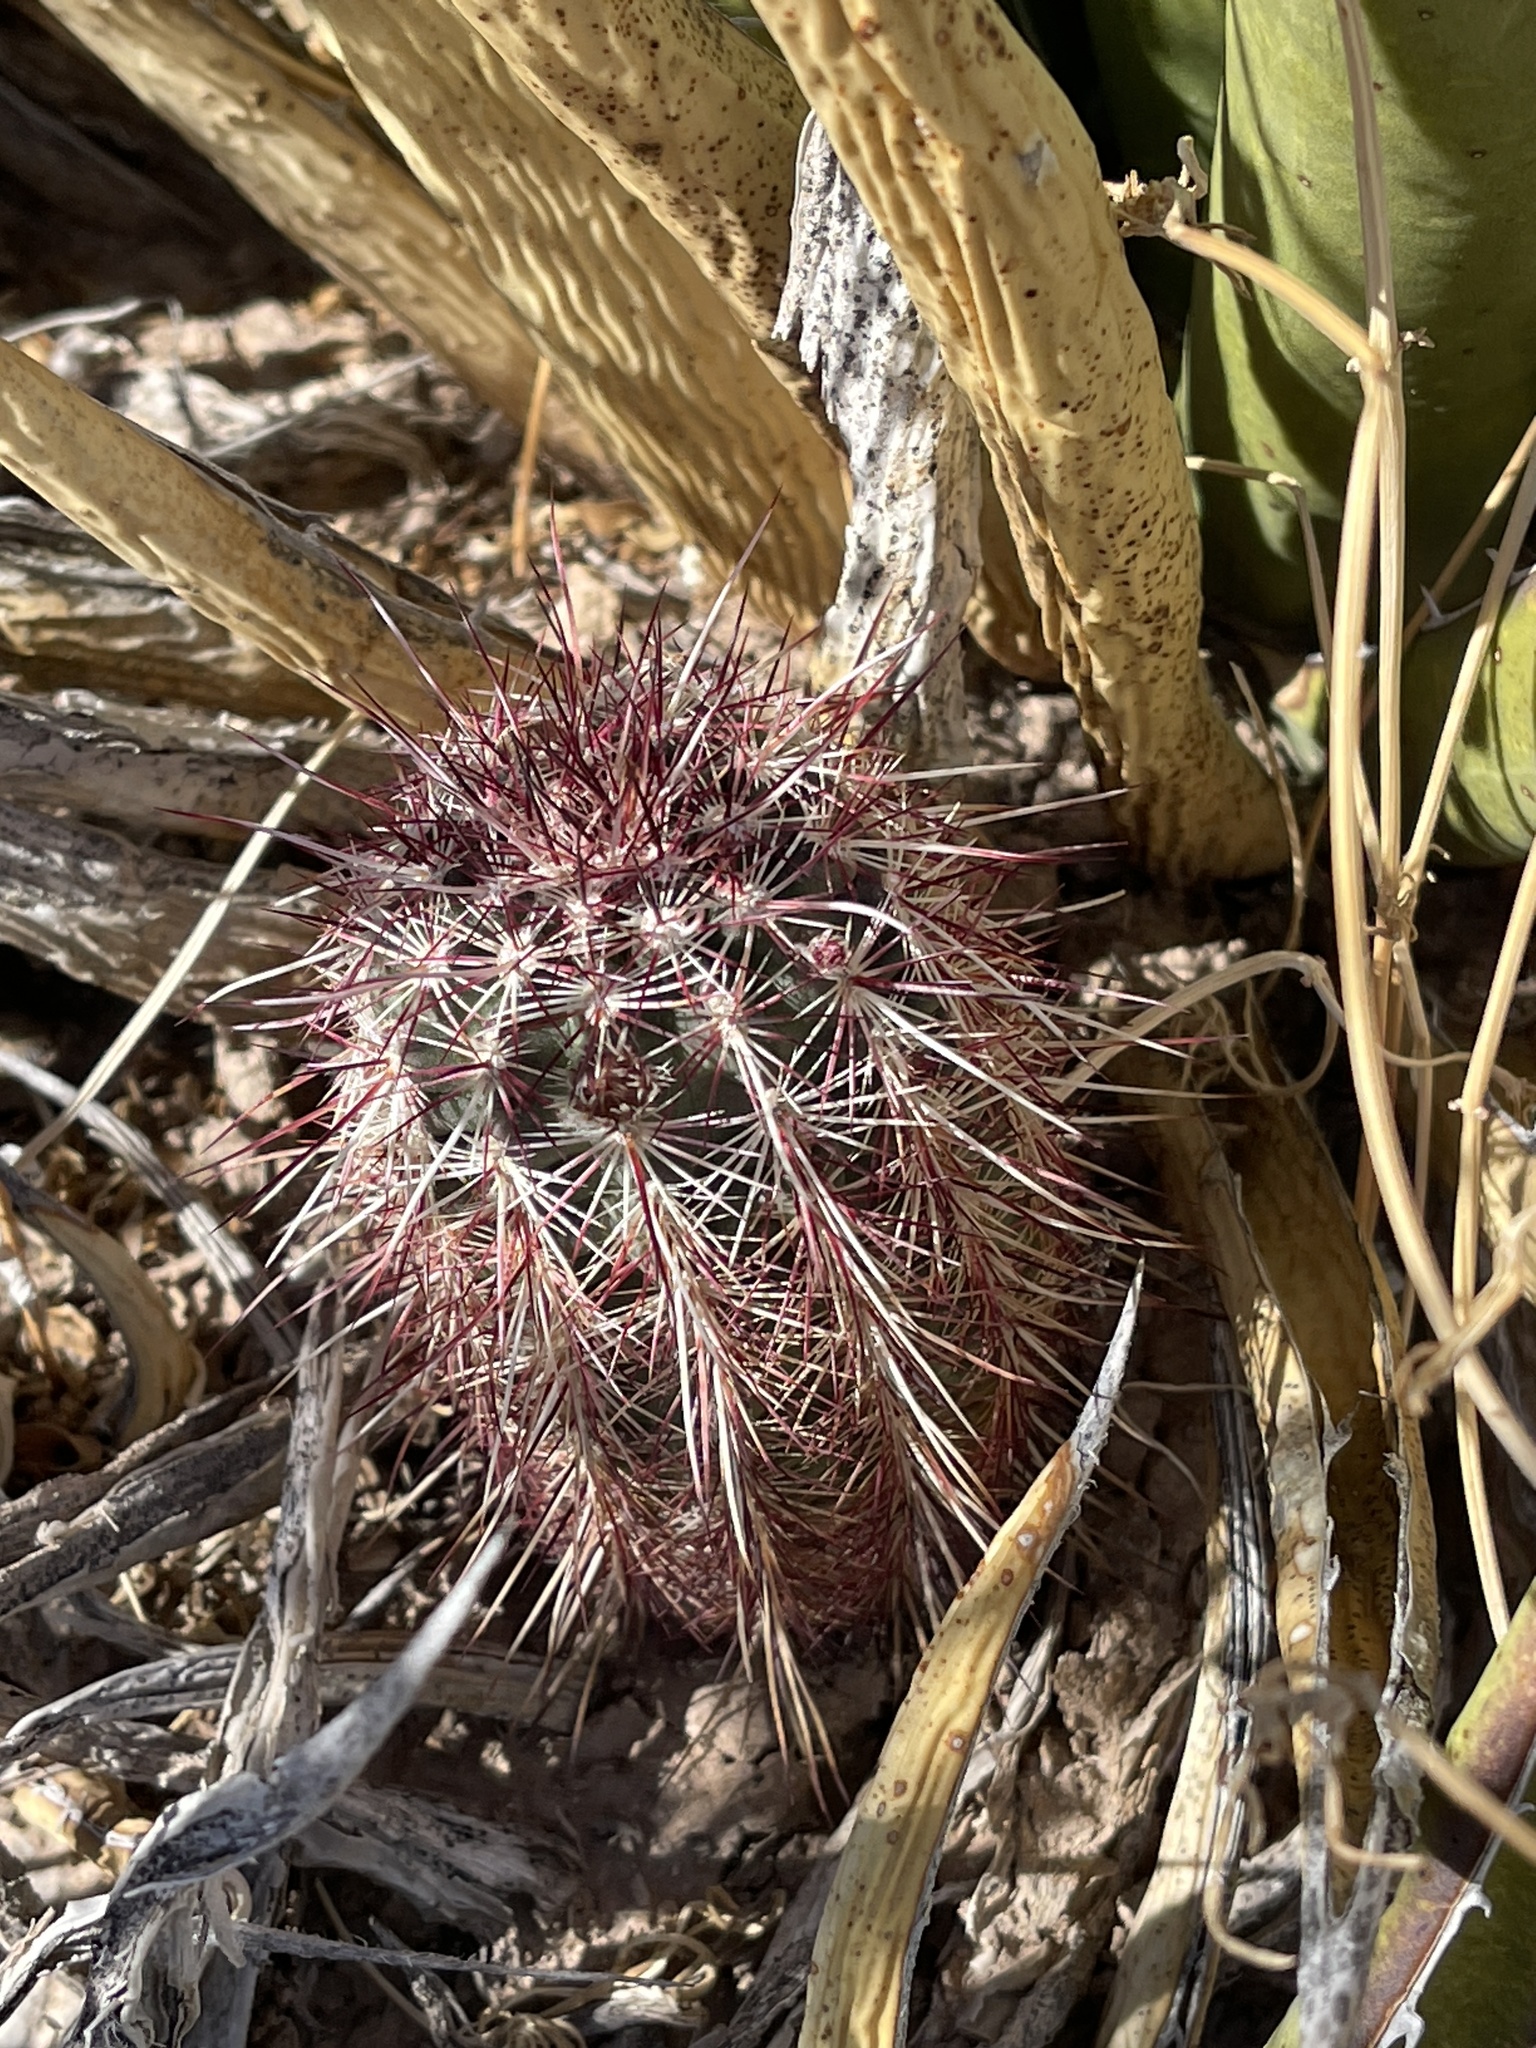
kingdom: Plantae
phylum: Tracheophyta
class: Magnoliopsida
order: Caryophyllales
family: Cactaceae
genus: Echinocereus
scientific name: Echinocereus viridiflorus
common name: Nylon hedgehog cactus
